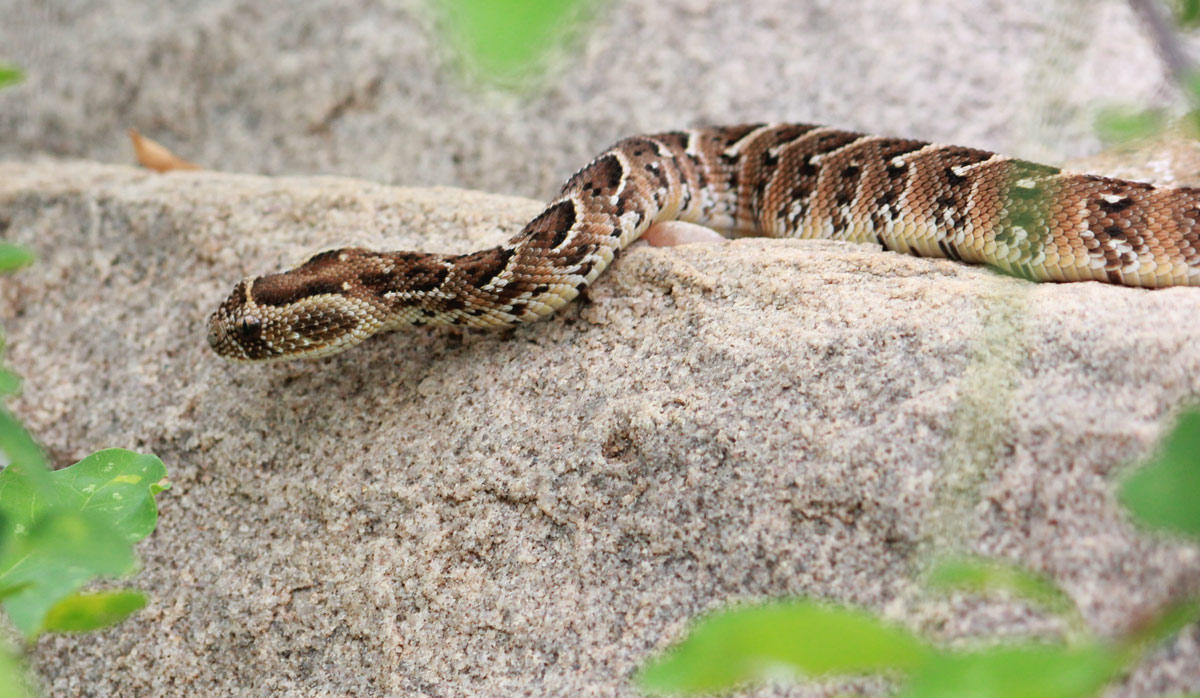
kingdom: Animalia
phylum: Chordata
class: Squamata
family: Viperidae
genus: Bitis
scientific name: Bitis arietans
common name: Puff adder
